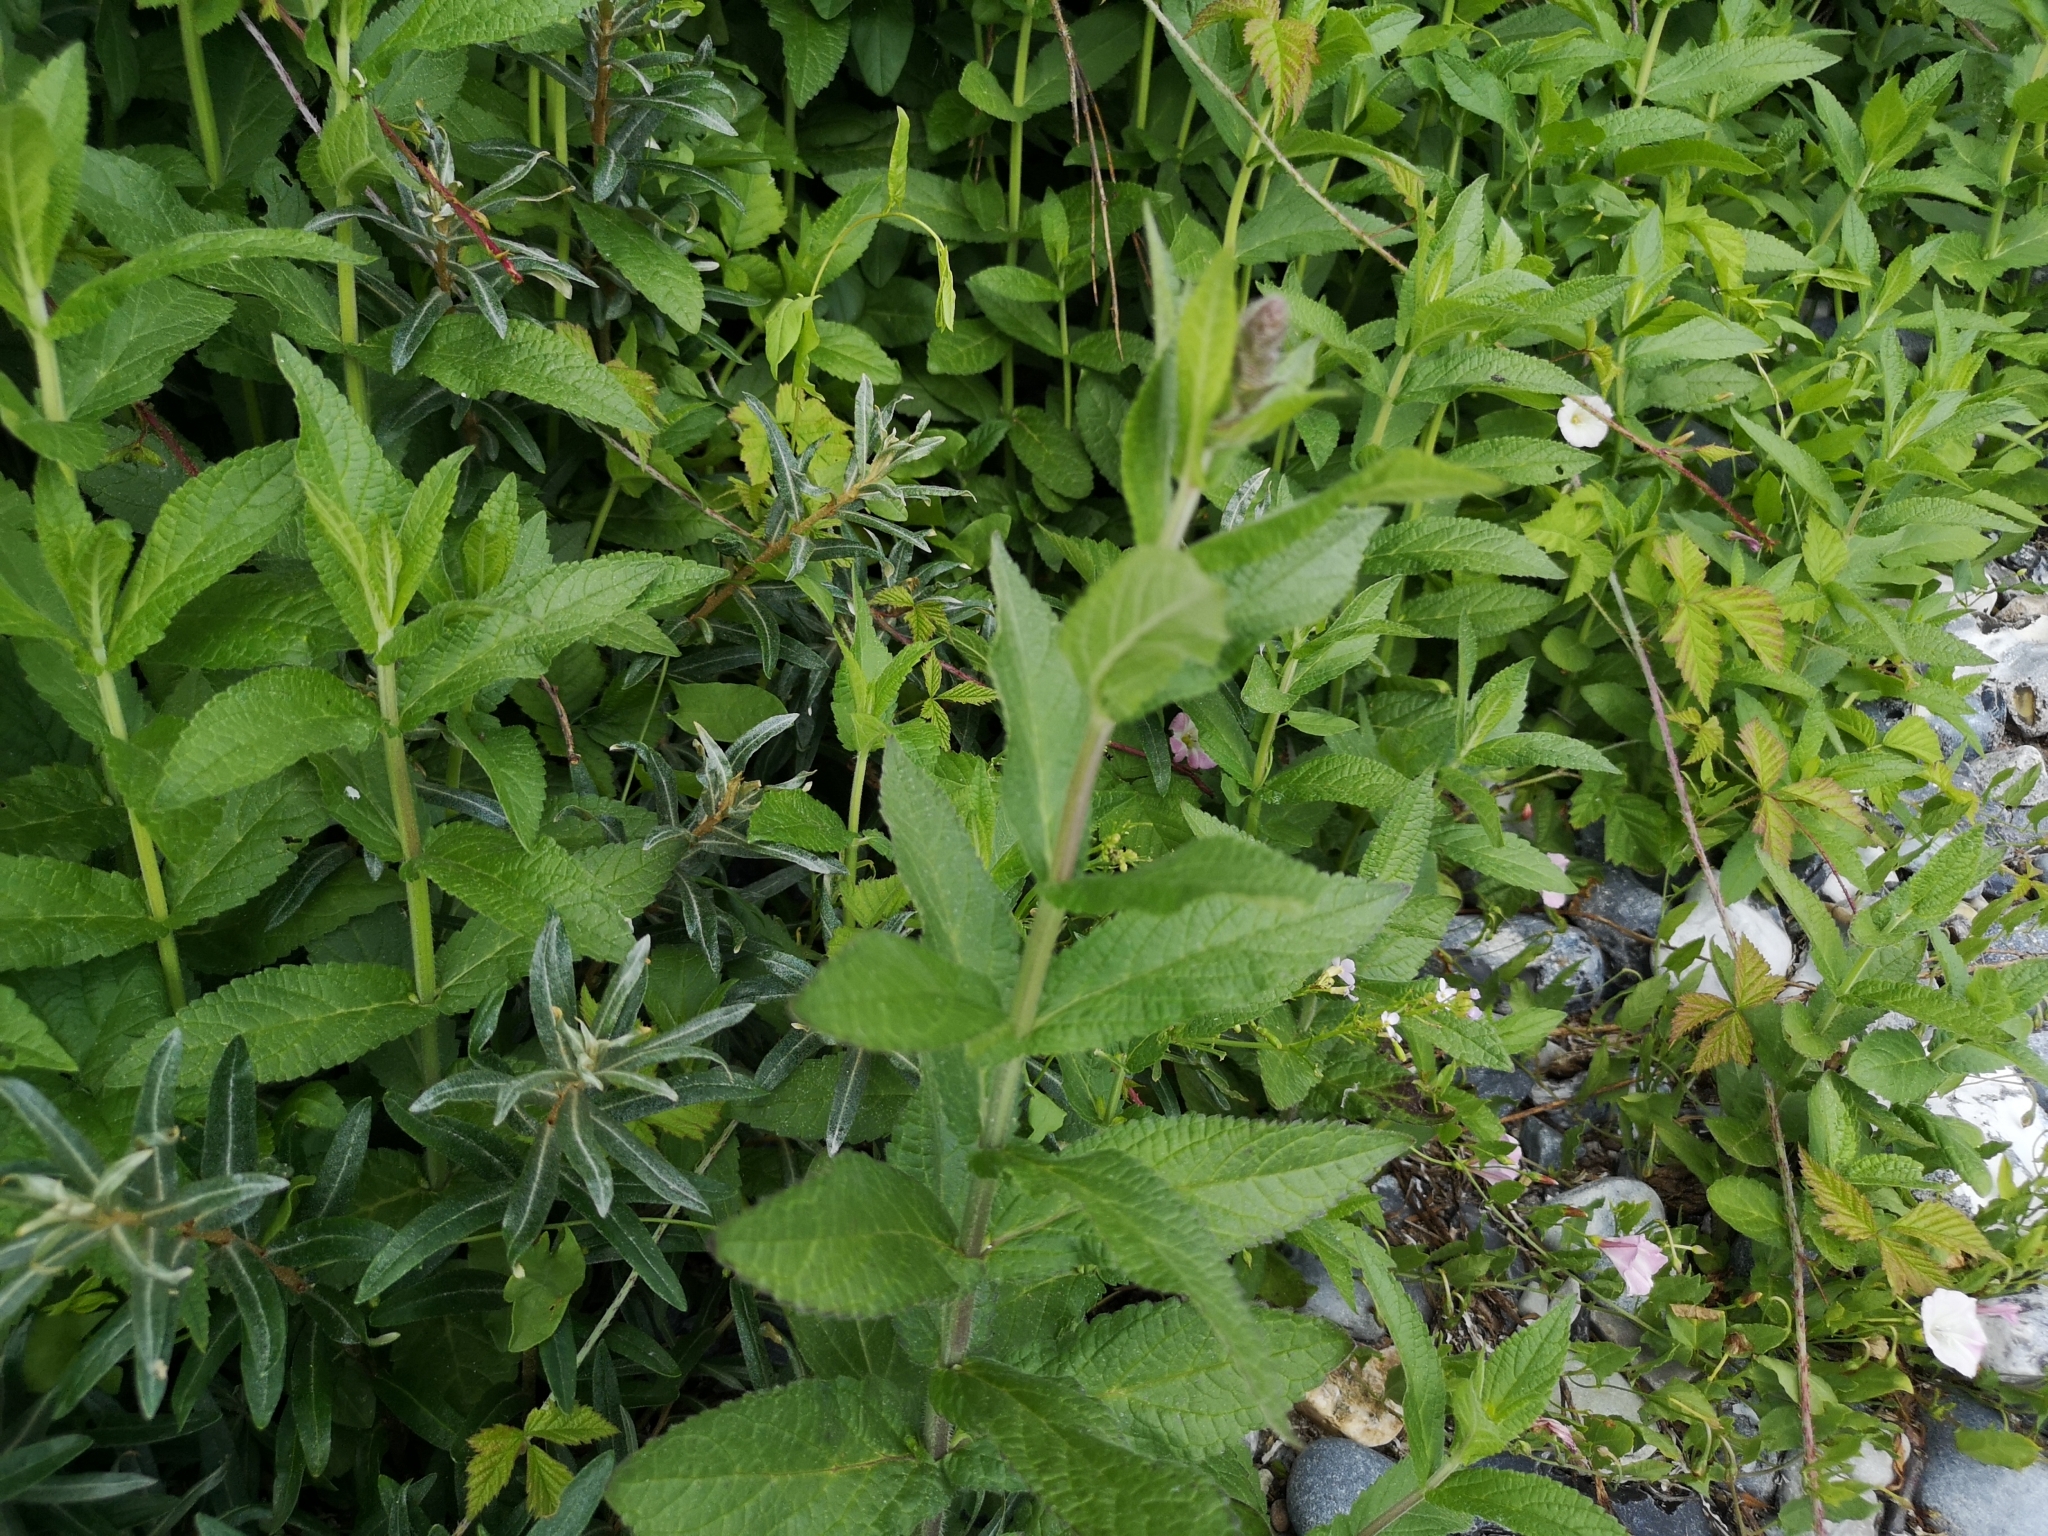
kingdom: Plantae
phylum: Tracheophyta
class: Magnoliopsida
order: Lamiales
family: Lamiaceae
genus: Stachys
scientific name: Stachys palustris
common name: Marsh woundwort
